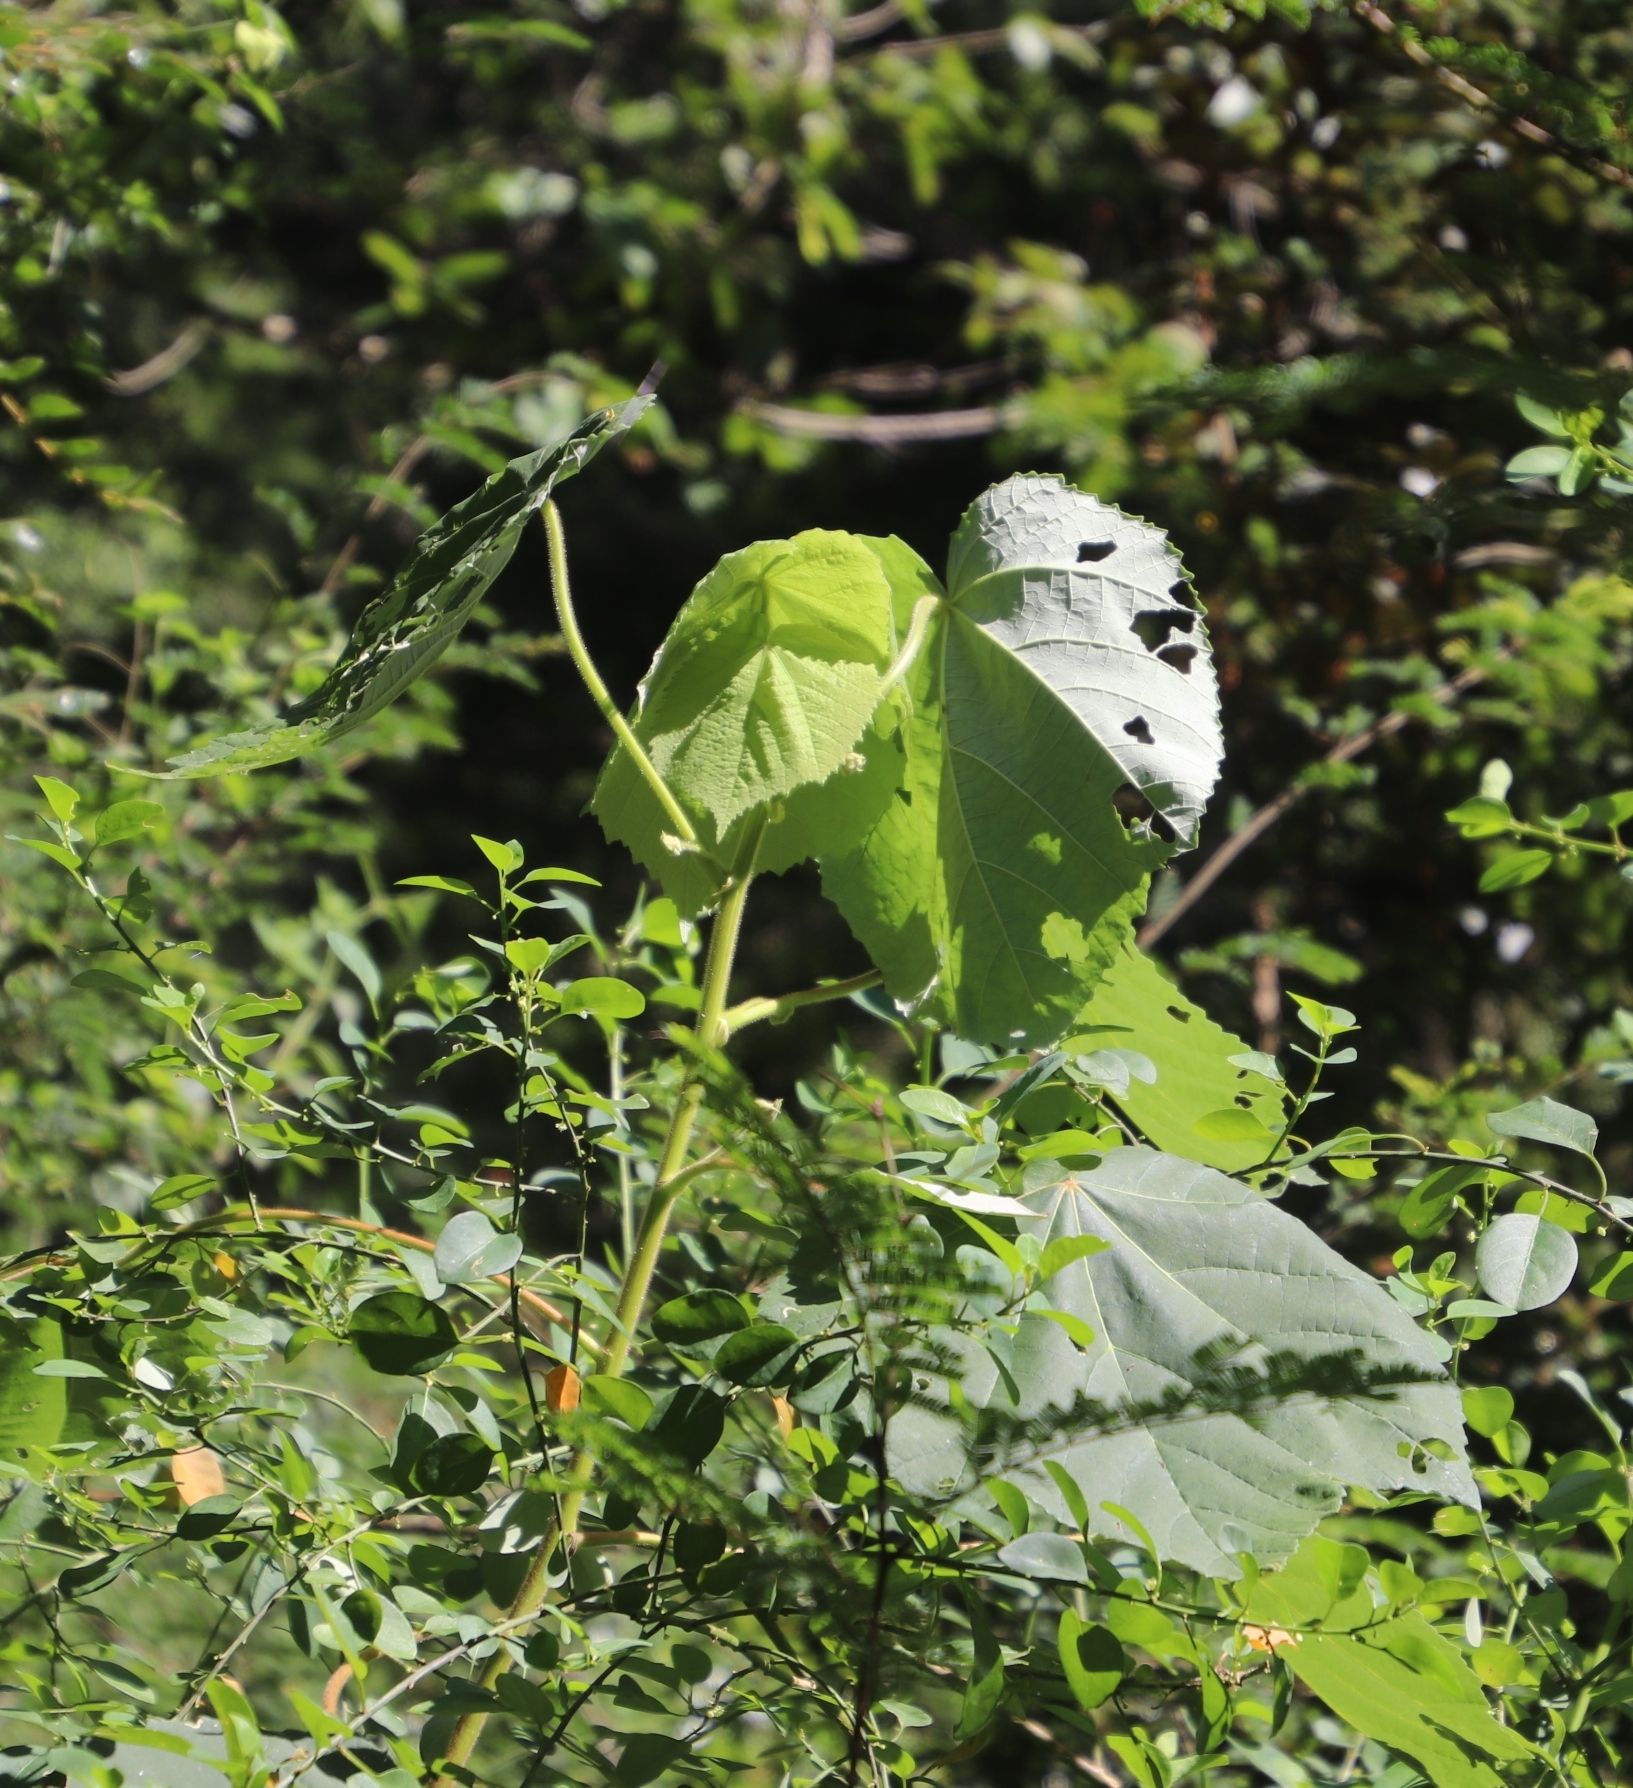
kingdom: Plantae
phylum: Tracheophyta
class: Magnoliopsida
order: Malvales
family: Malvaceae
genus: Sparrmannia
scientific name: Sparrmannia ricinocarpa
